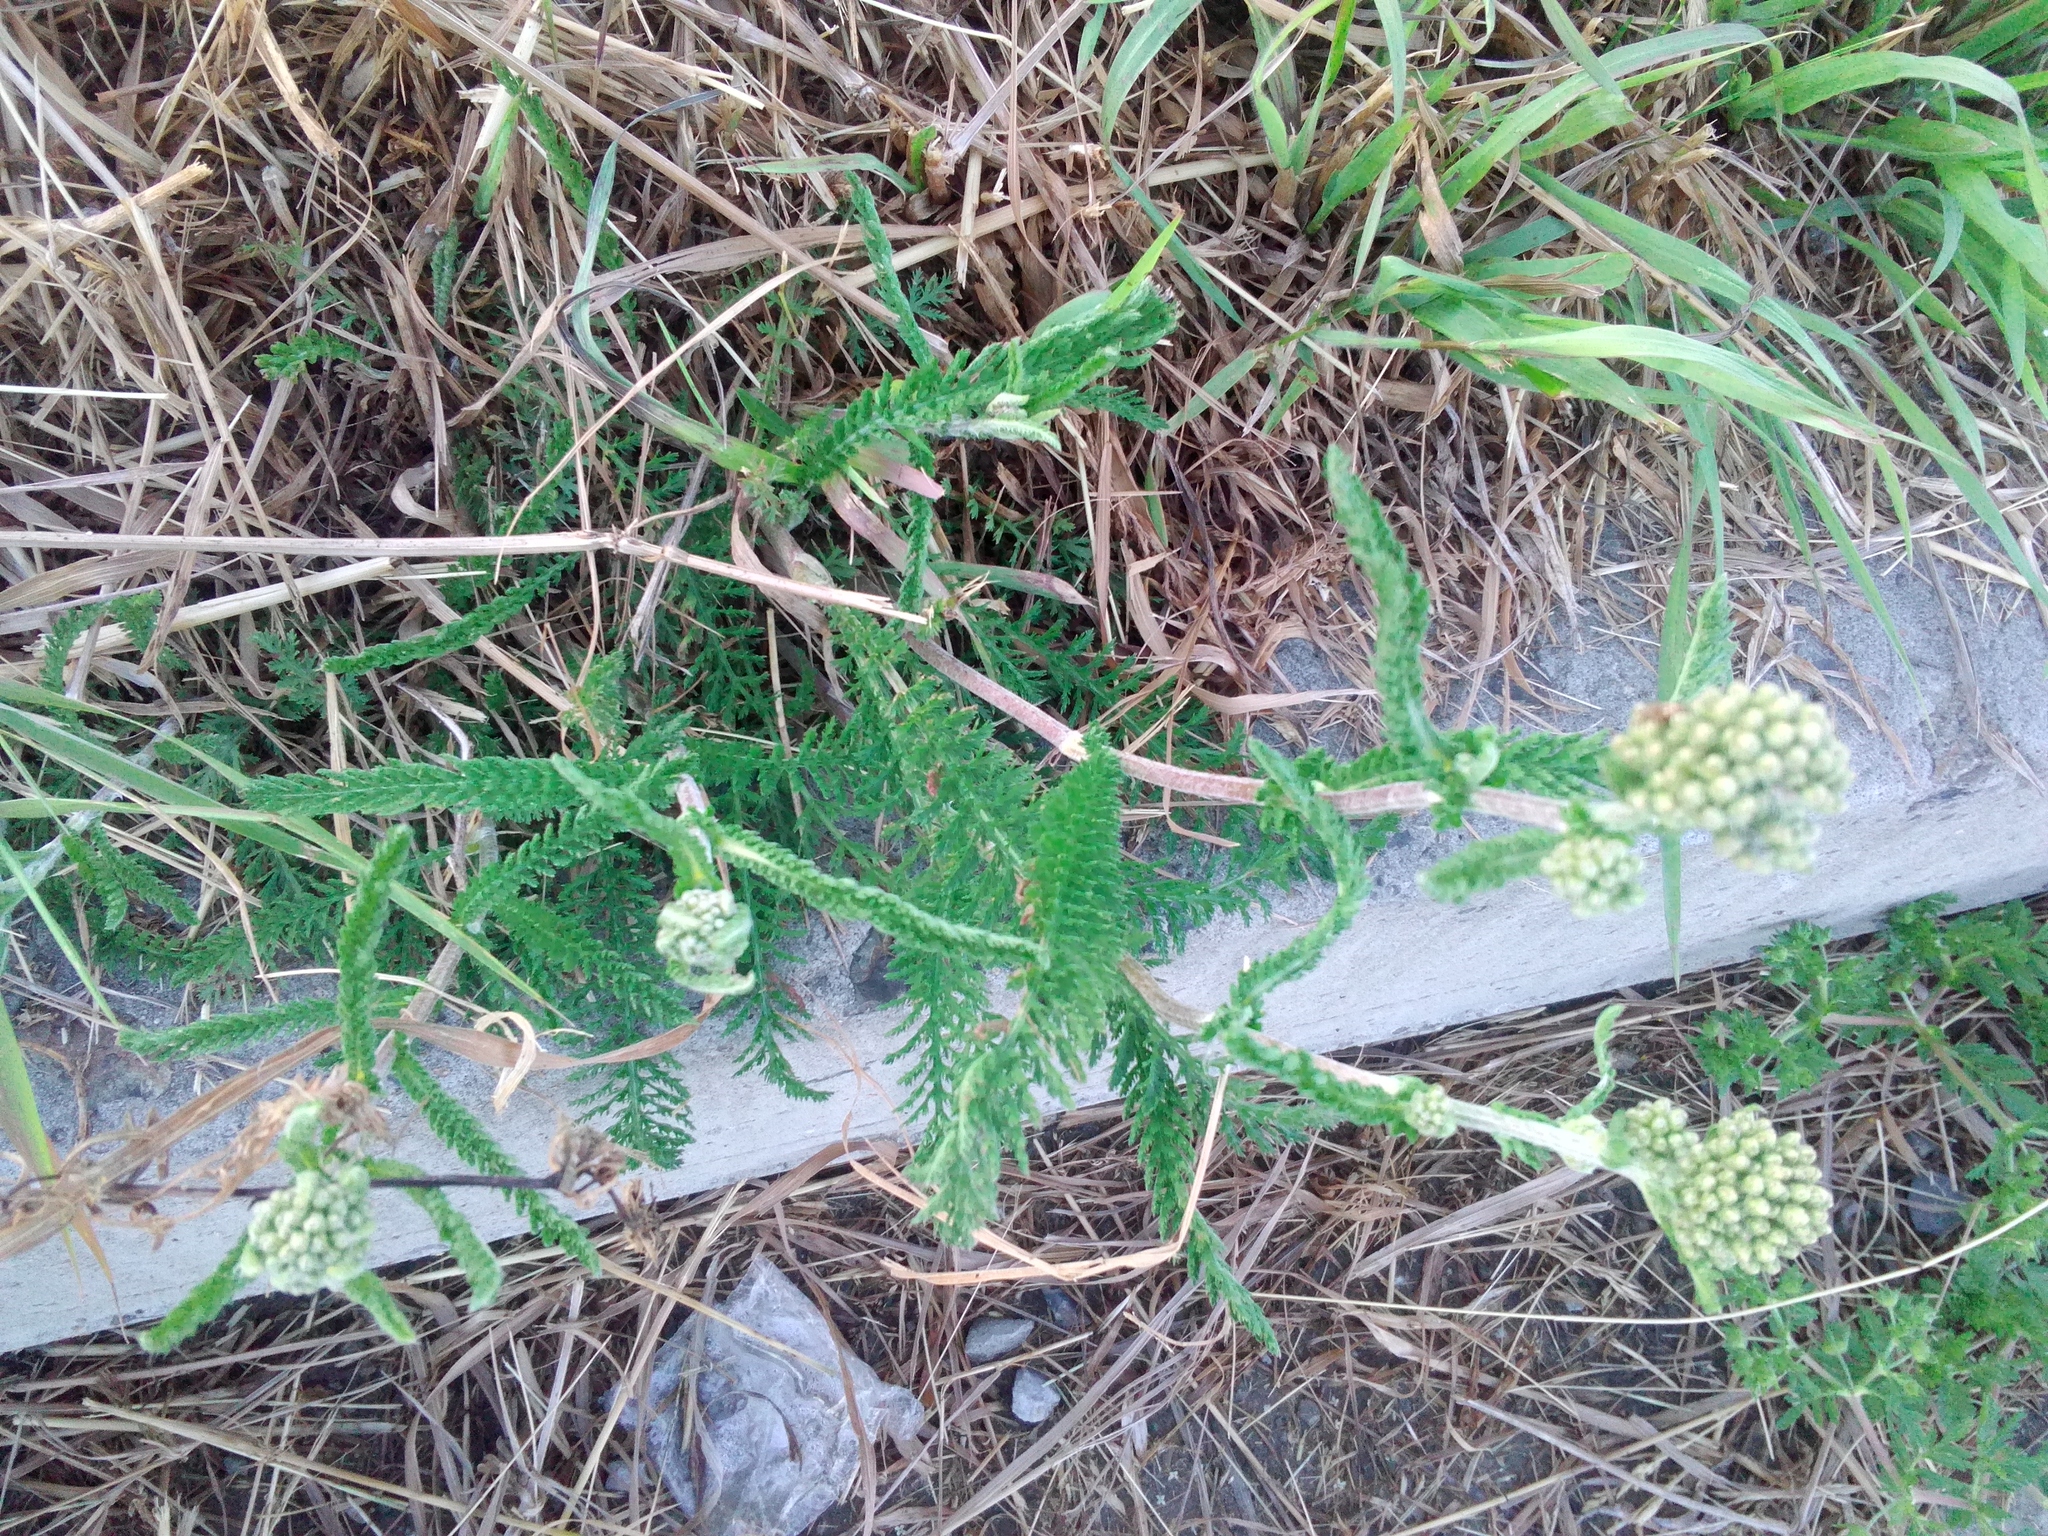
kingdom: Plantae
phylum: Tracheophyta
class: Magnoliopsida
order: Asterales
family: Asteraceae
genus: Achillea
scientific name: Achillea millefolium
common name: Yarrow
